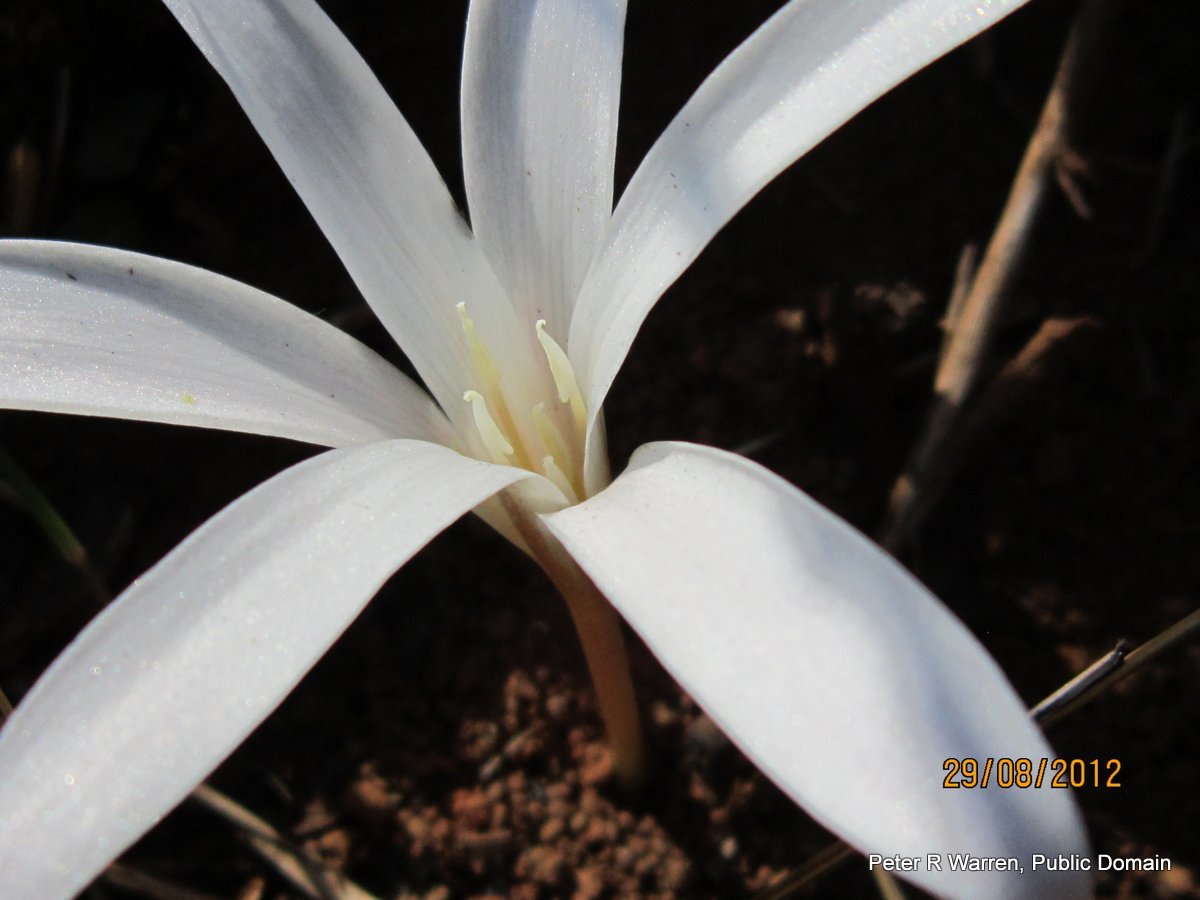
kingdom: Plantae
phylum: Tracheophyta
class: Liliopsida
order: Asparagales
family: Amaryllidaceae
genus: Apodolirion
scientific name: Apodolirion buchananii
